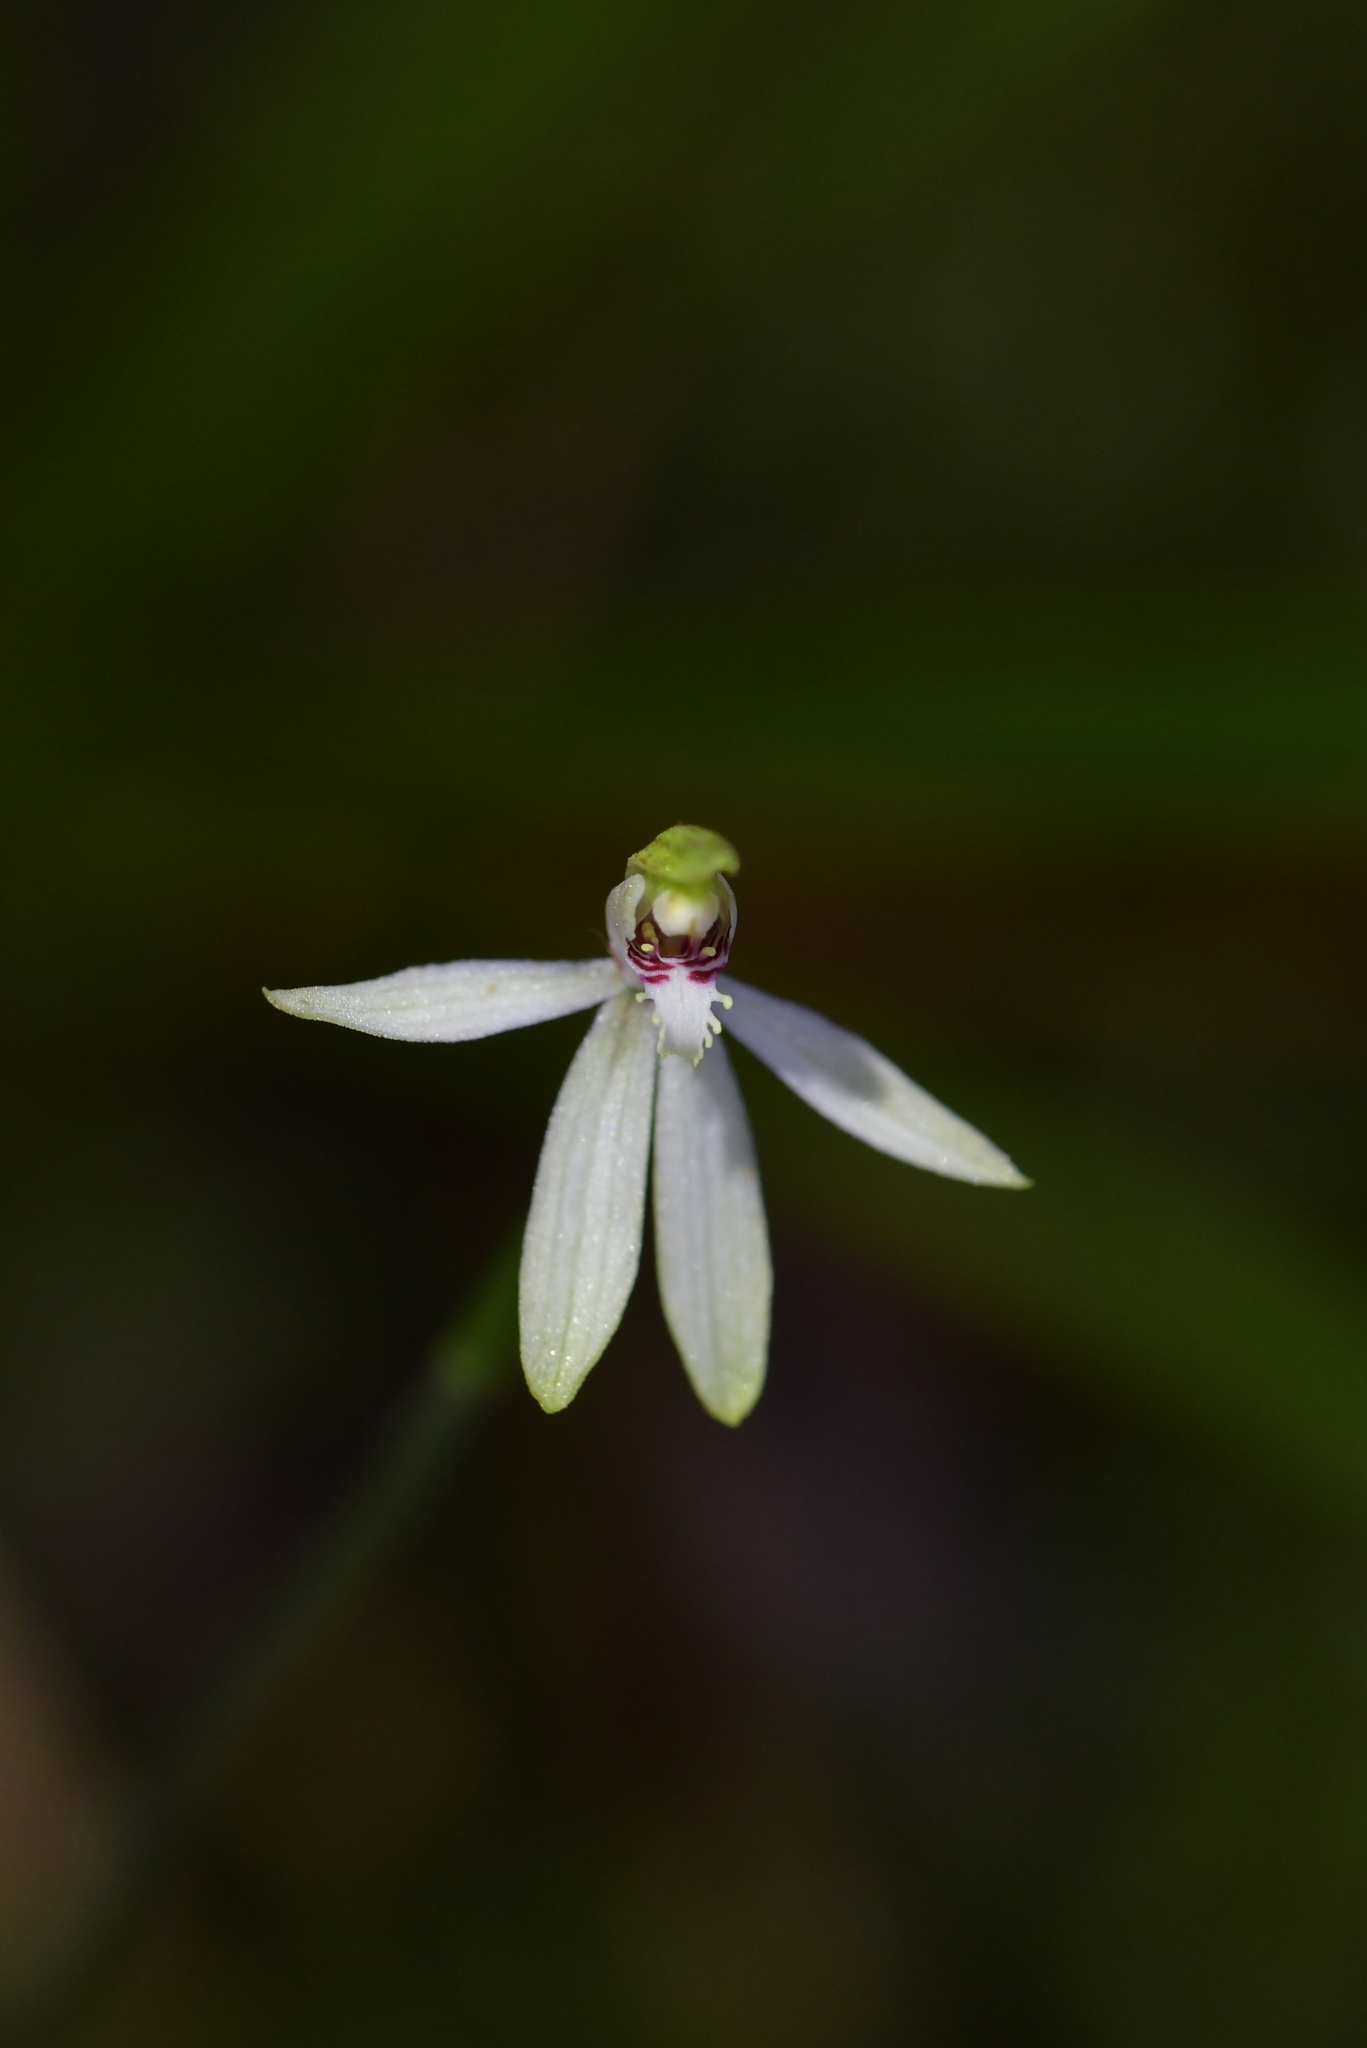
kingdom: Plantae
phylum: Tracheophyta
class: Liliopsida
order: Asparagales
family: Orchidaceae
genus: Caladenia
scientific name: Caladenia chlorostyla
